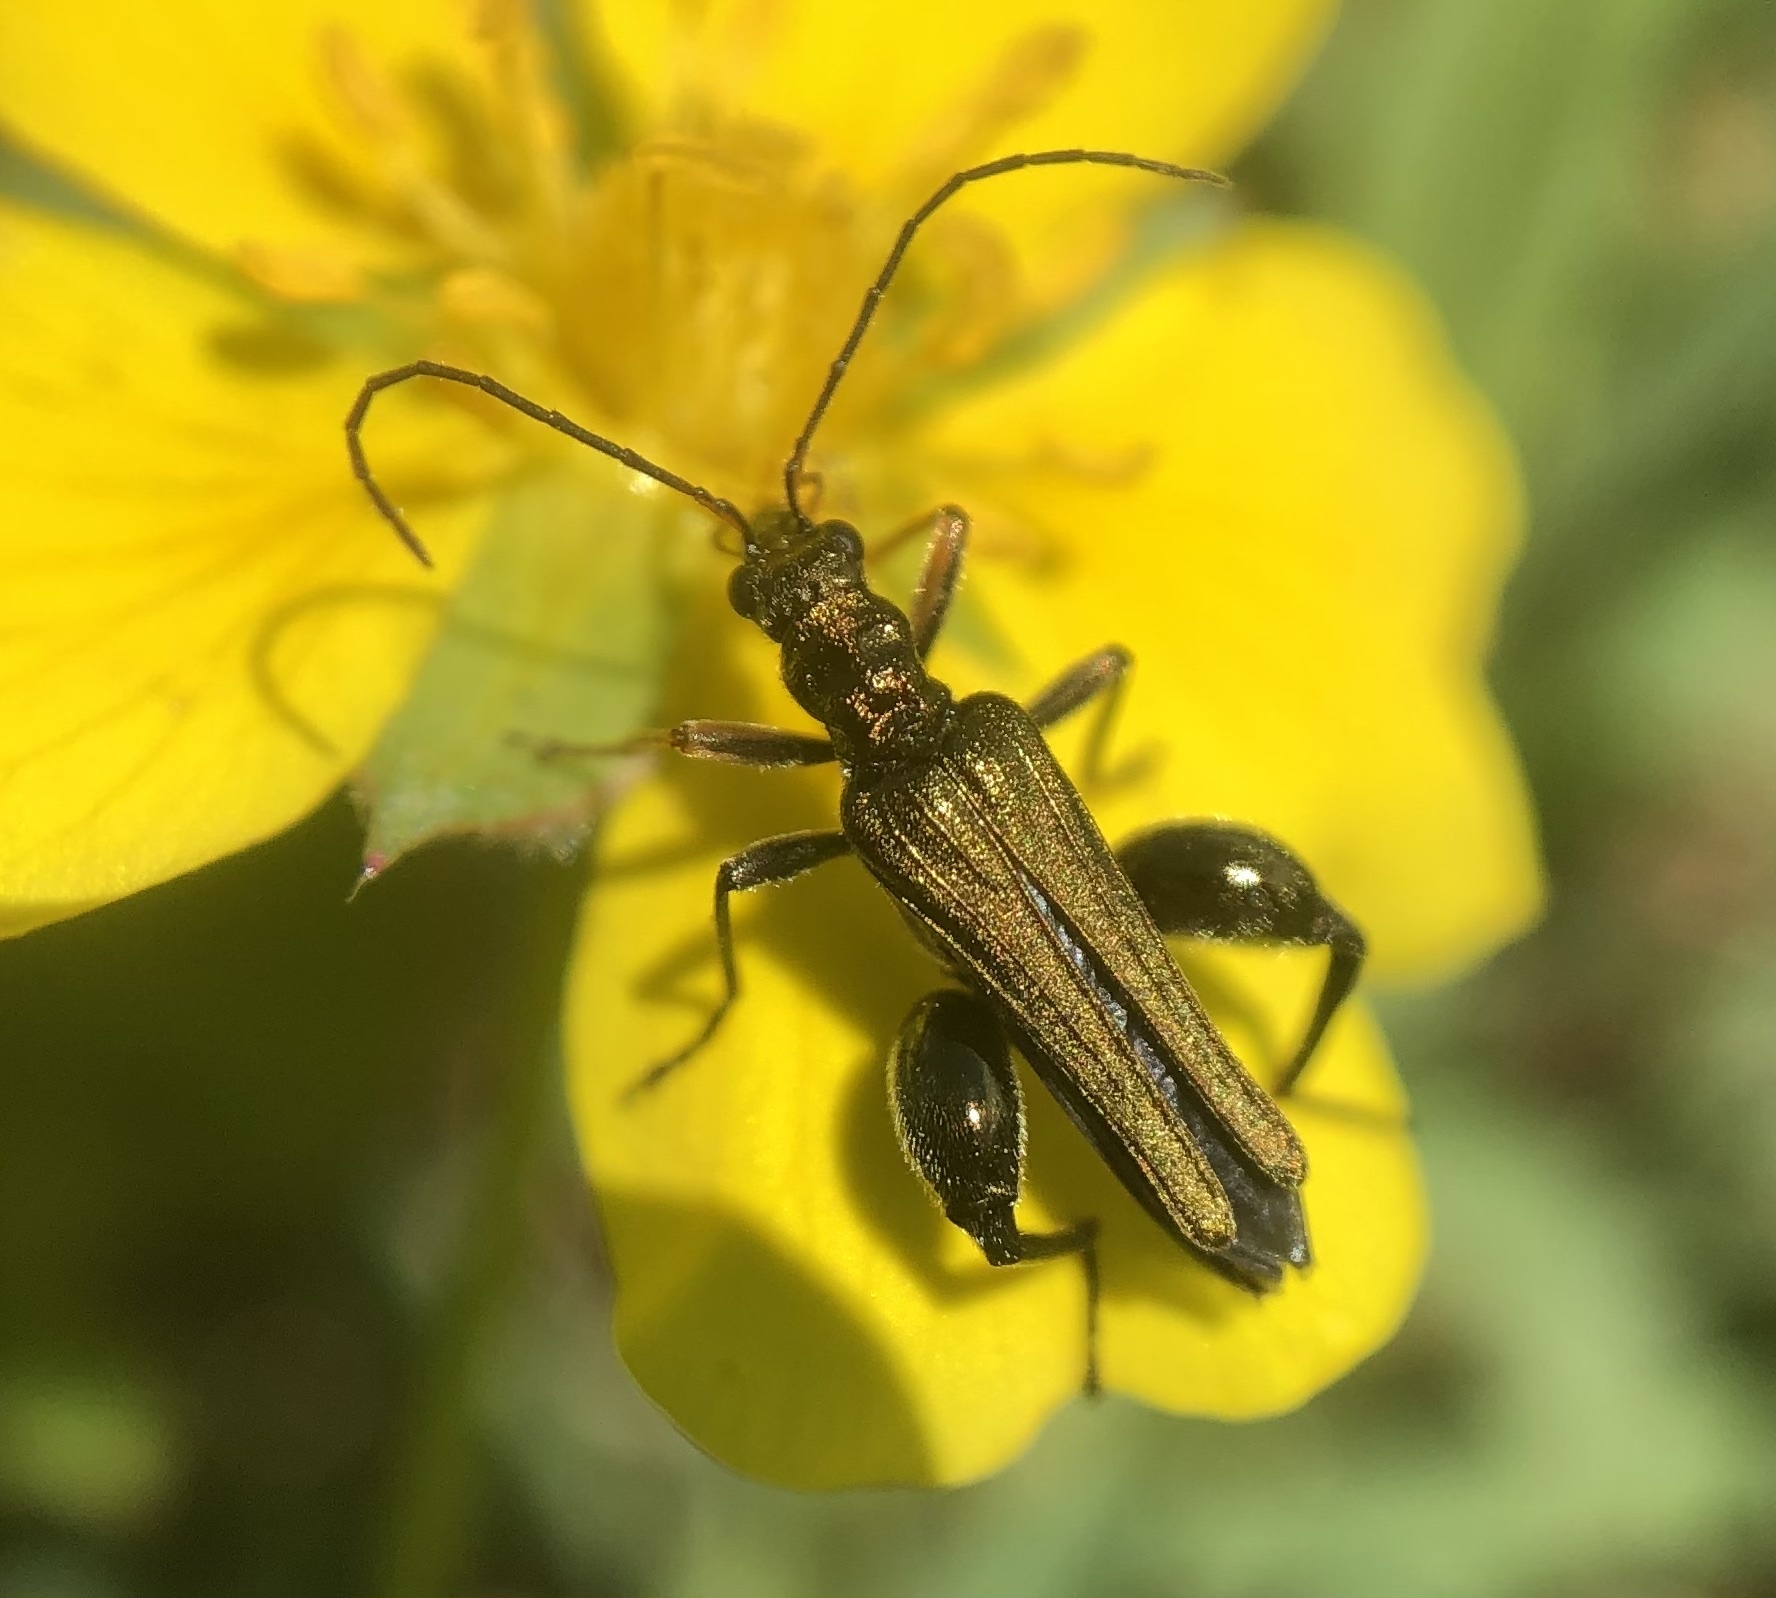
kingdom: Animalia
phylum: Arthropoda
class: Insecta
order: Coleoptera
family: Oedemeridae
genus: Oedemera
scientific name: Oedemera flavipes
